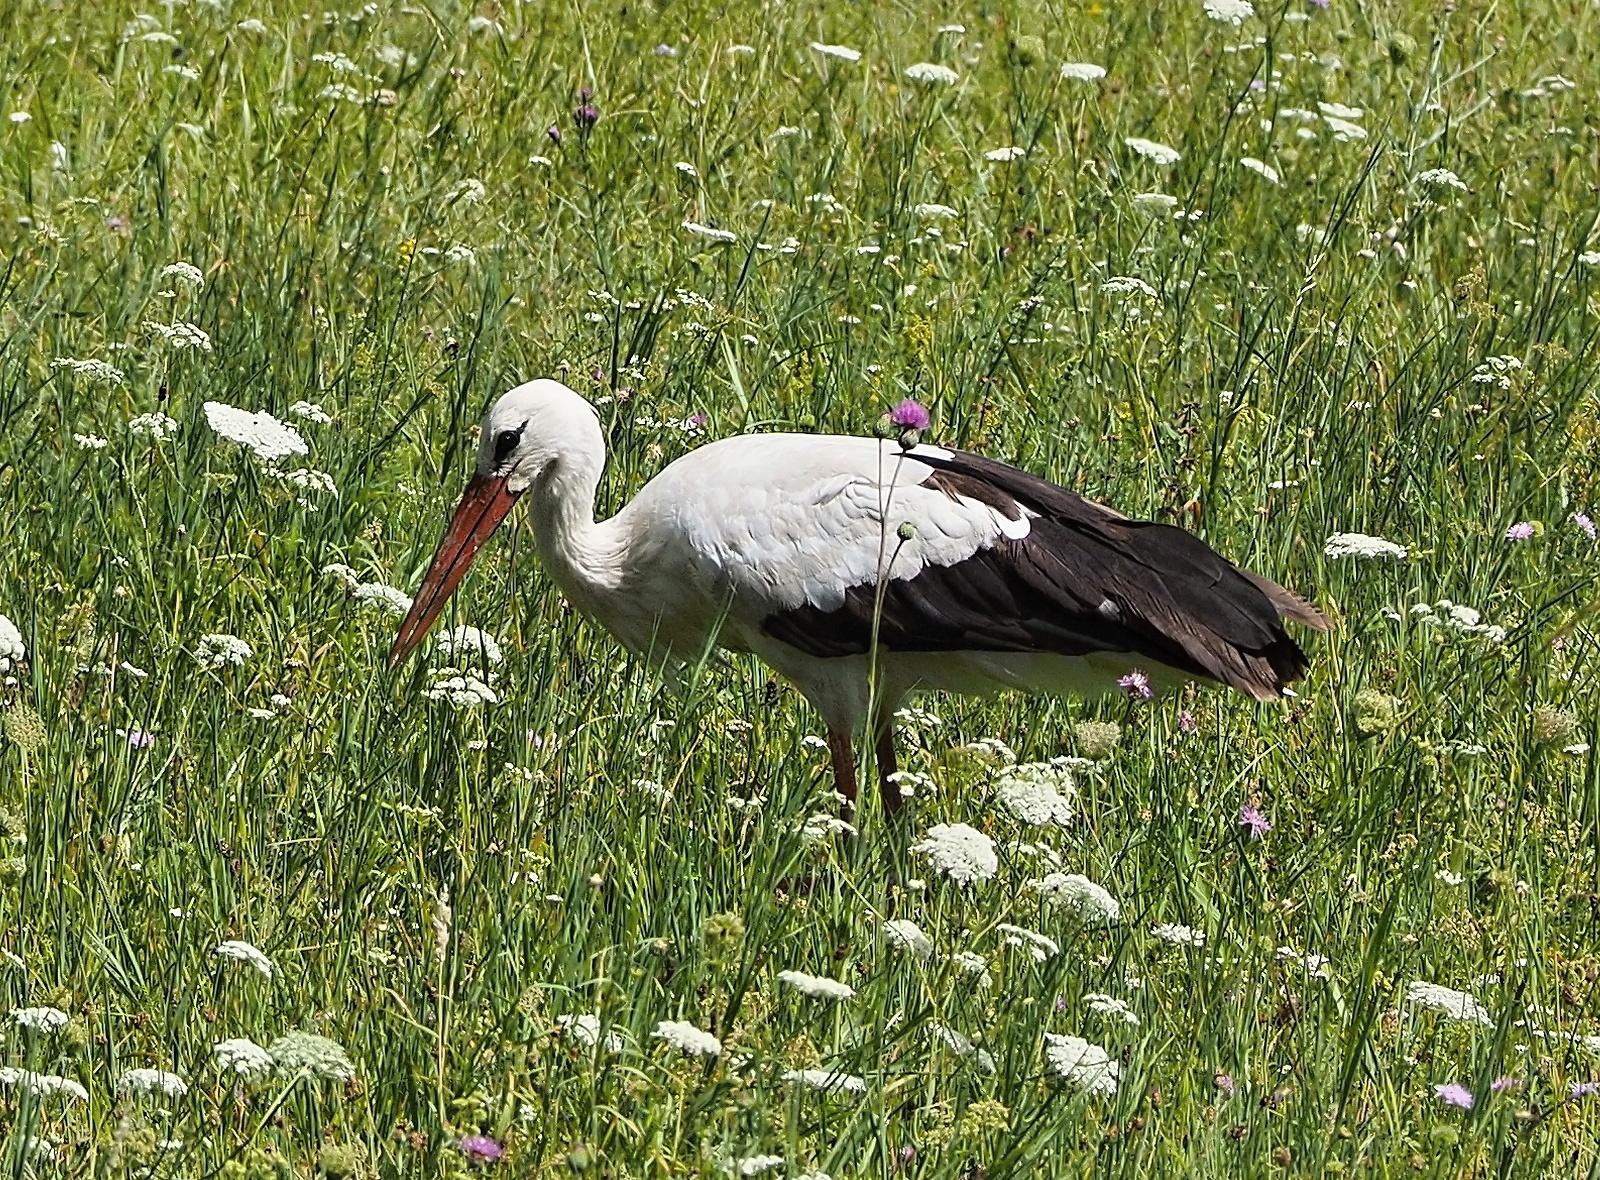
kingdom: Animalia
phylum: Chordata
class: Aves
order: Ciconiiformes
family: Ciconiidae
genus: Ciconia
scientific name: Ciconia ciconia
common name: White stork
